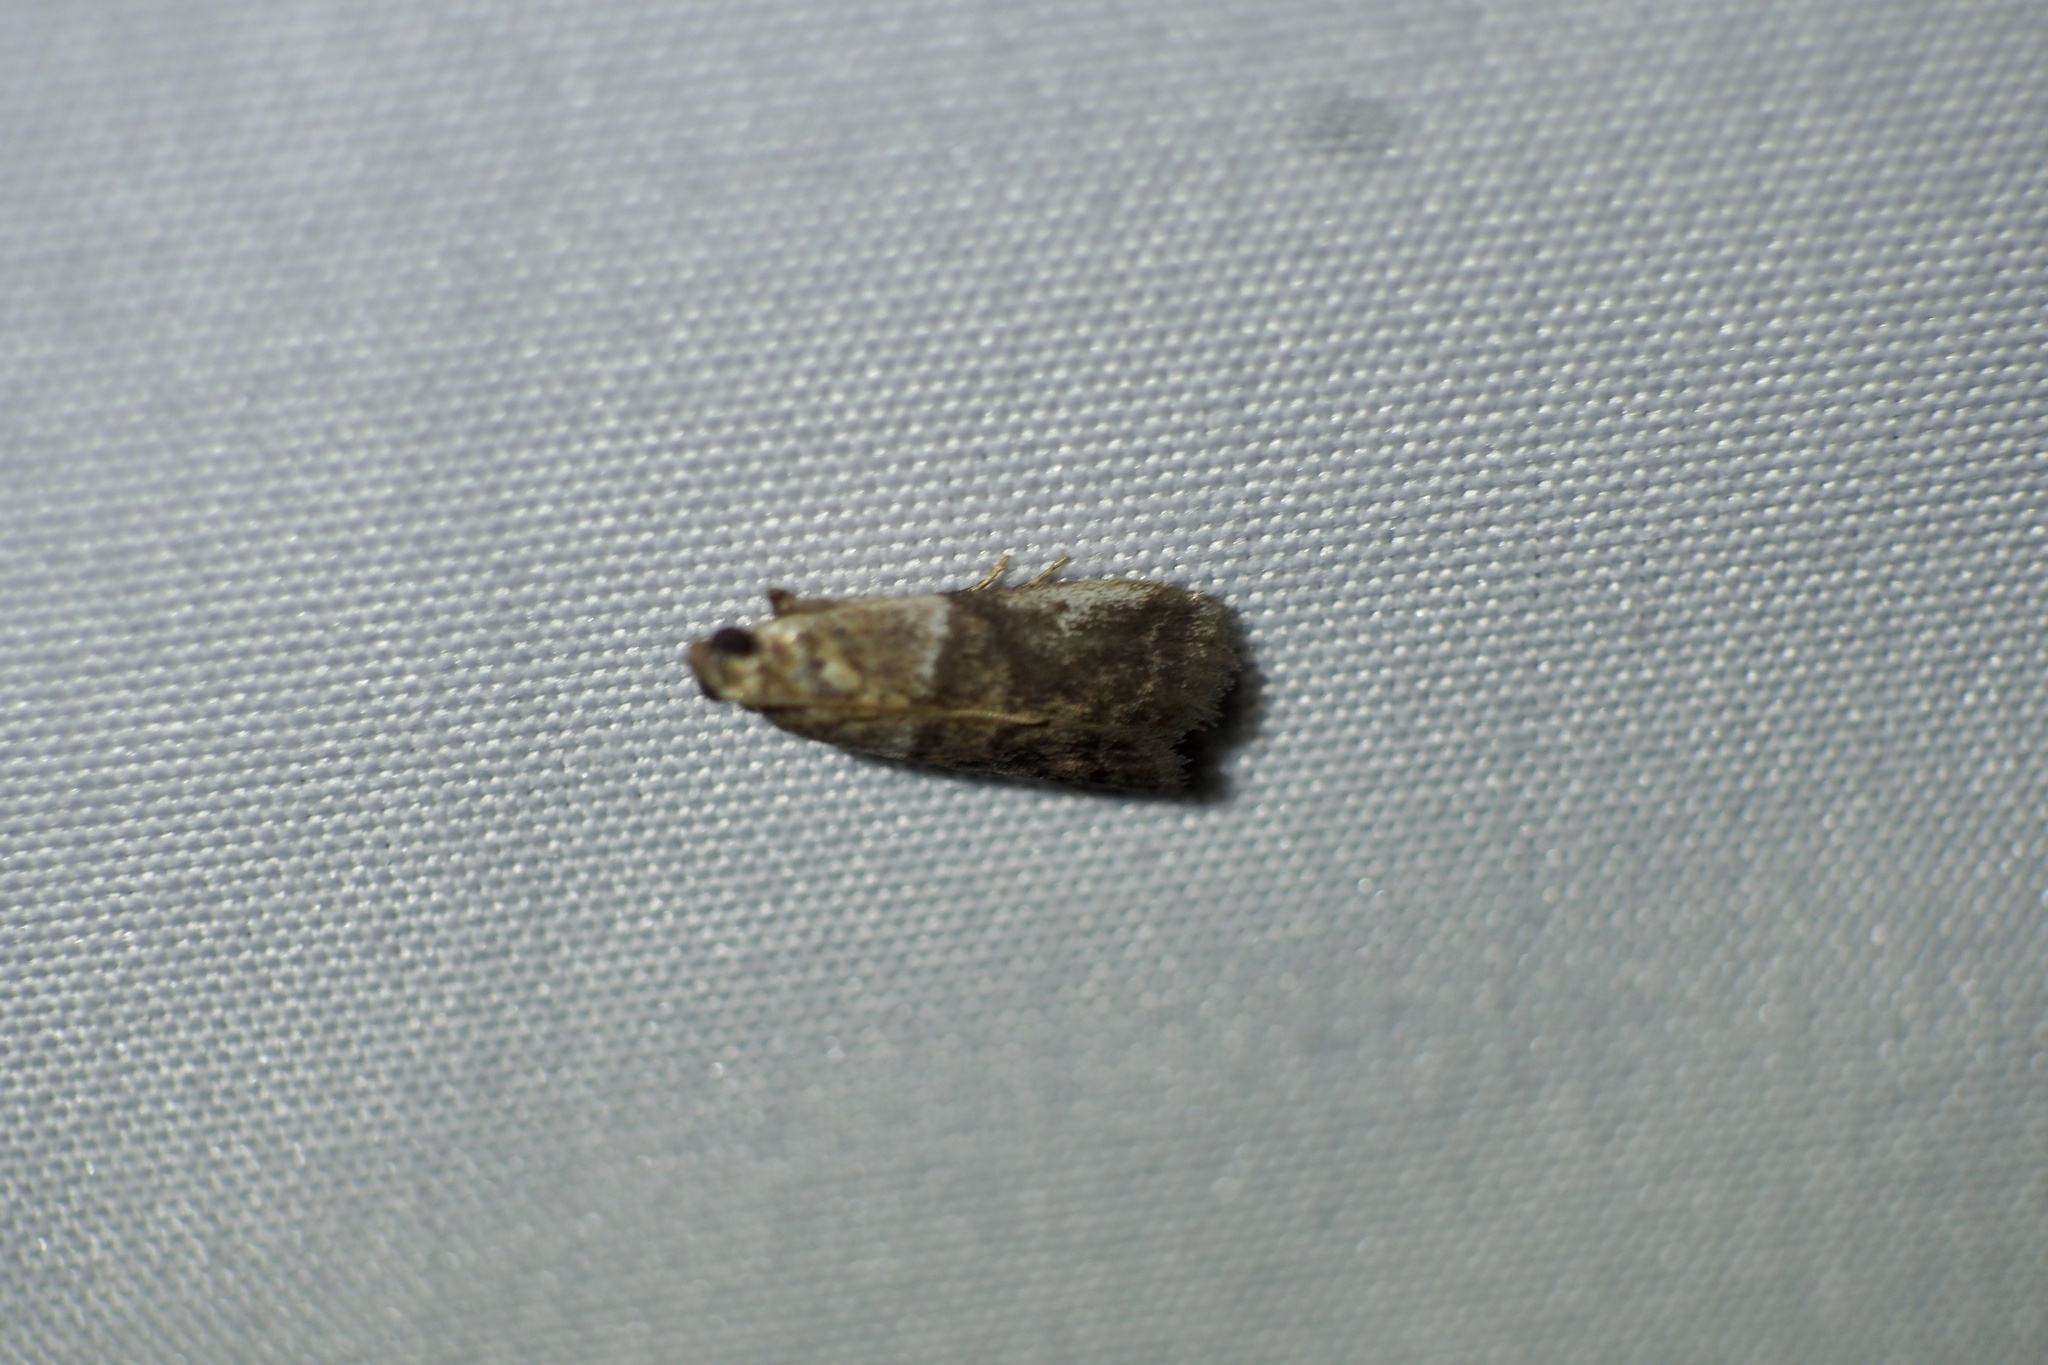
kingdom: Animalia
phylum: Arthropoda
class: Insecta
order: Lepidoptera
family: Pyralidae
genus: Acrobasis
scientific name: Acrobasis tricolorella
